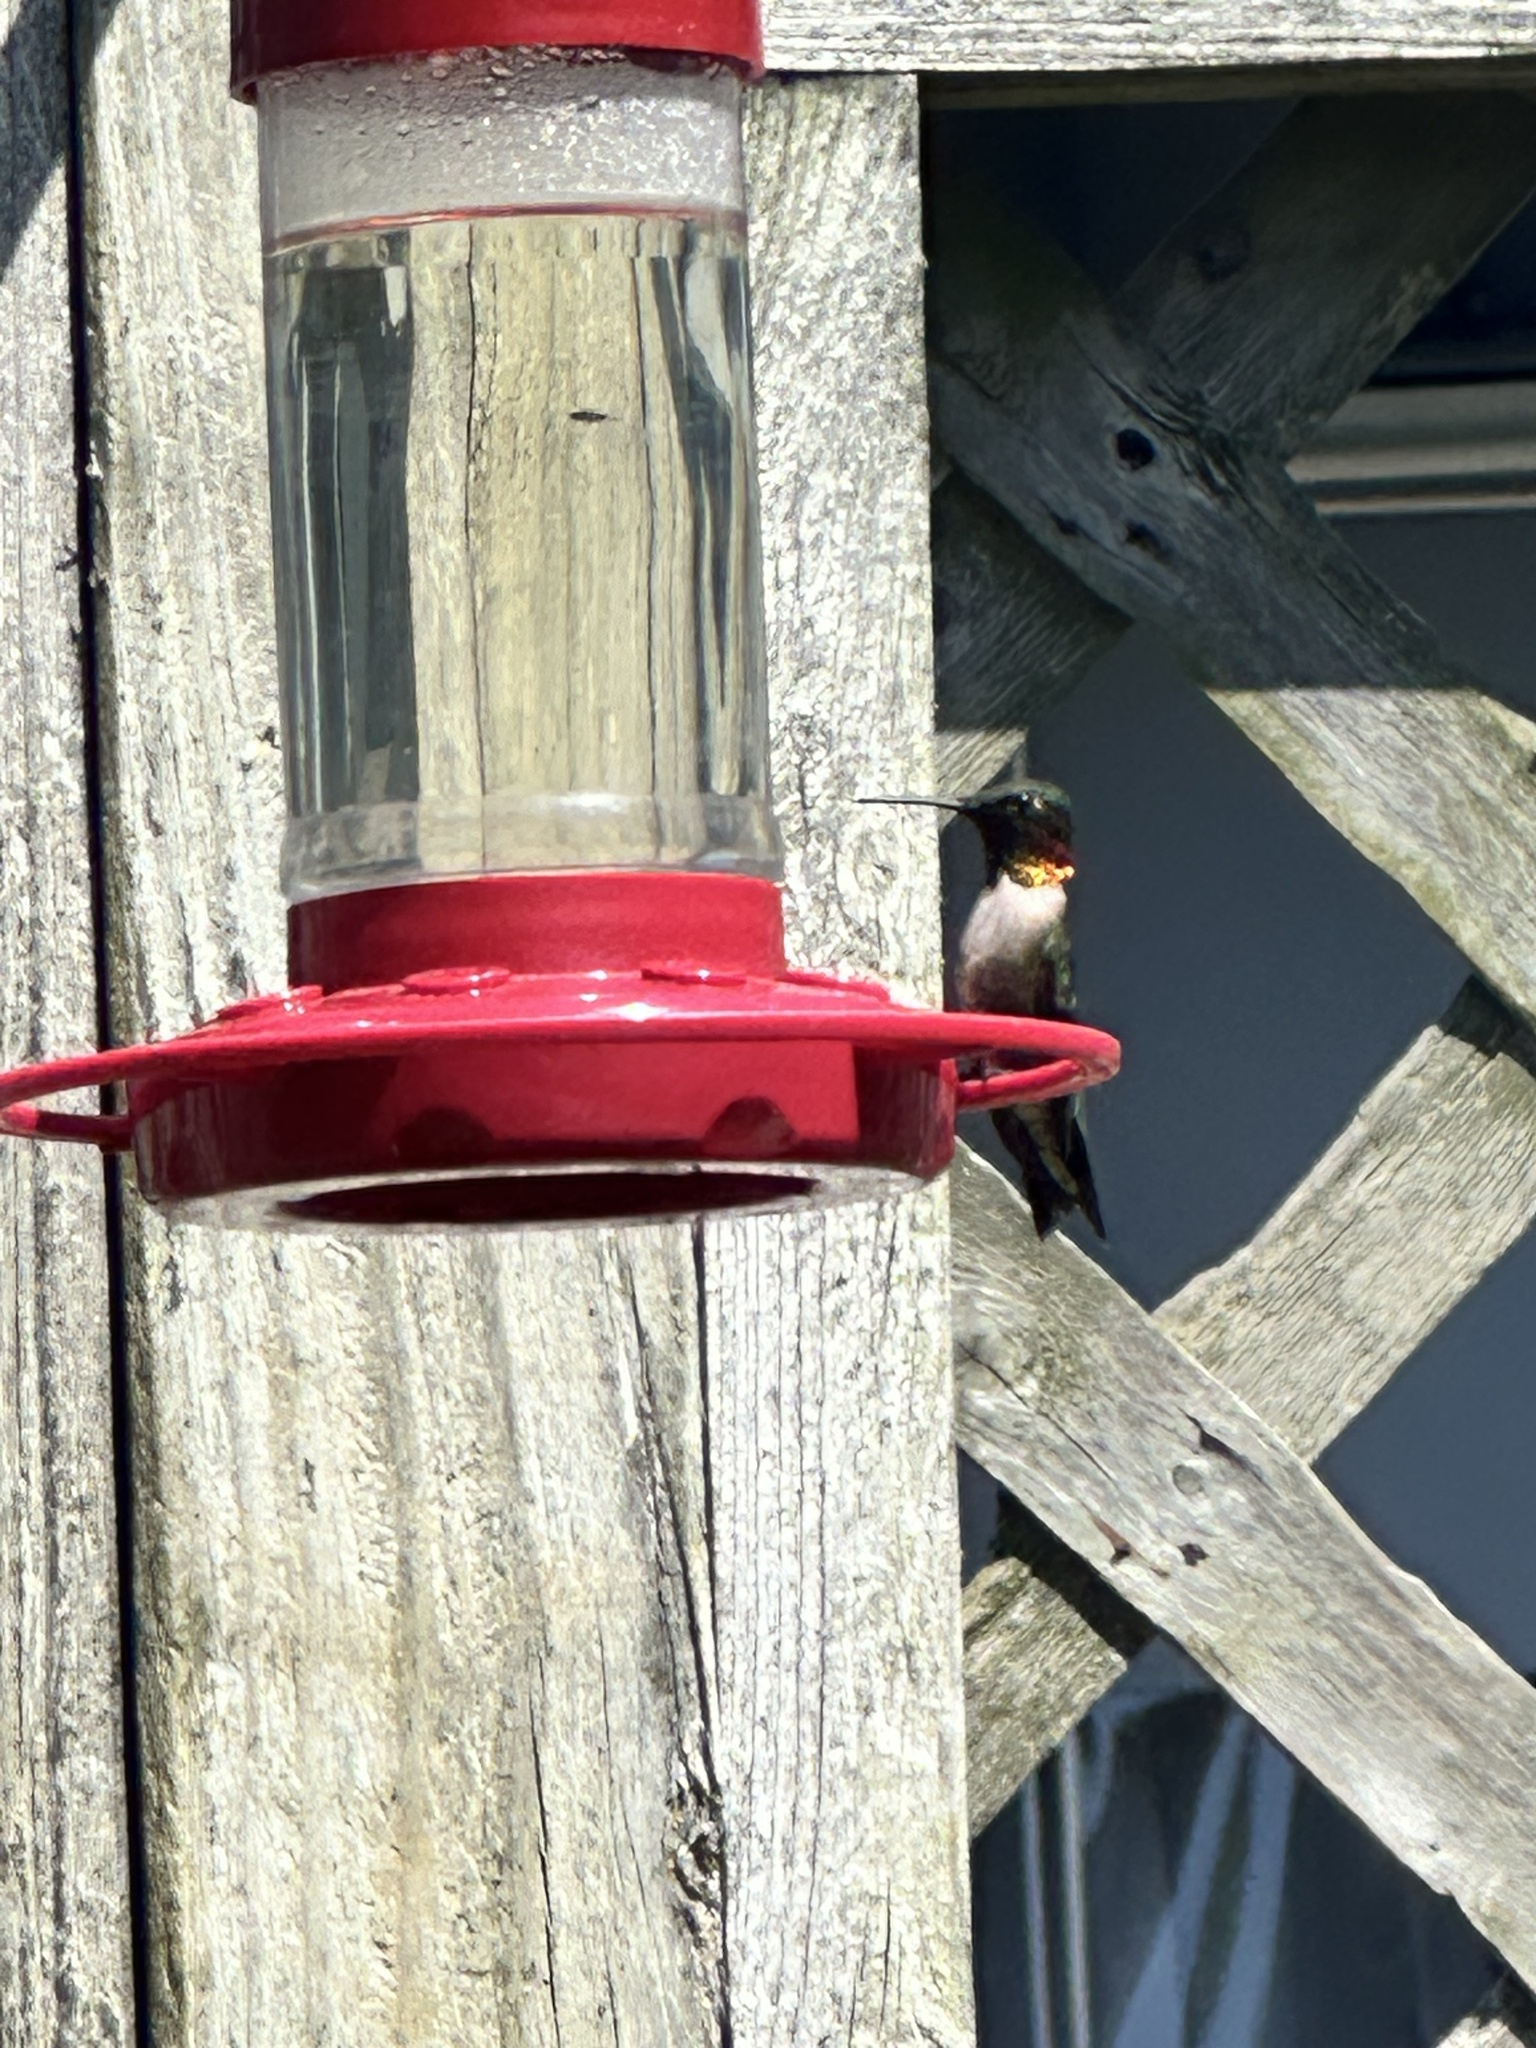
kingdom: Animalia
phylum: Chordata
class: Aves
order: Apodiformes
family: Trochilidae
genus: Archilochus
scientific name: Archilochus colubris
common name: Ruby-throated hummingbird
